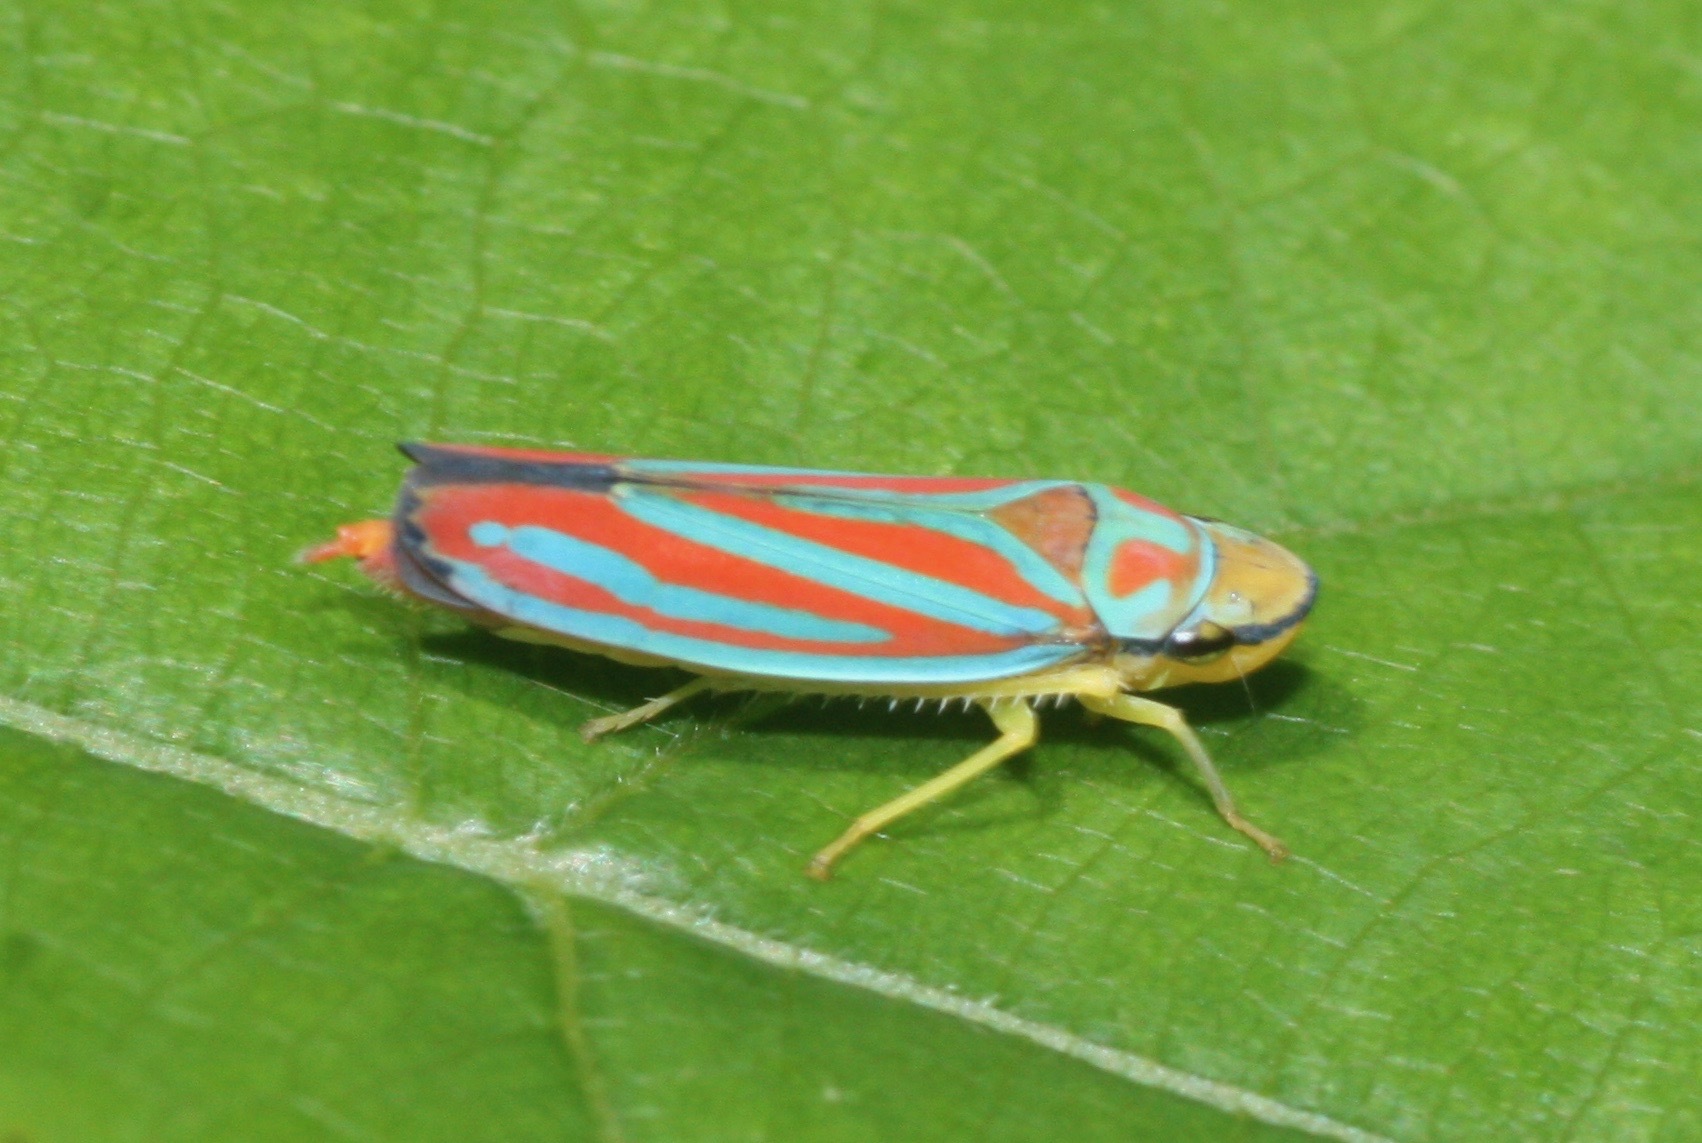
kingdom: Animalia
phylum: Arthropoda
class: Insecta
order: Hemiptera
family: Cicadellidae
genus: Graphocephala
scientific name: Graphocephala coccinea
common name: Candy-striped leafhopper
